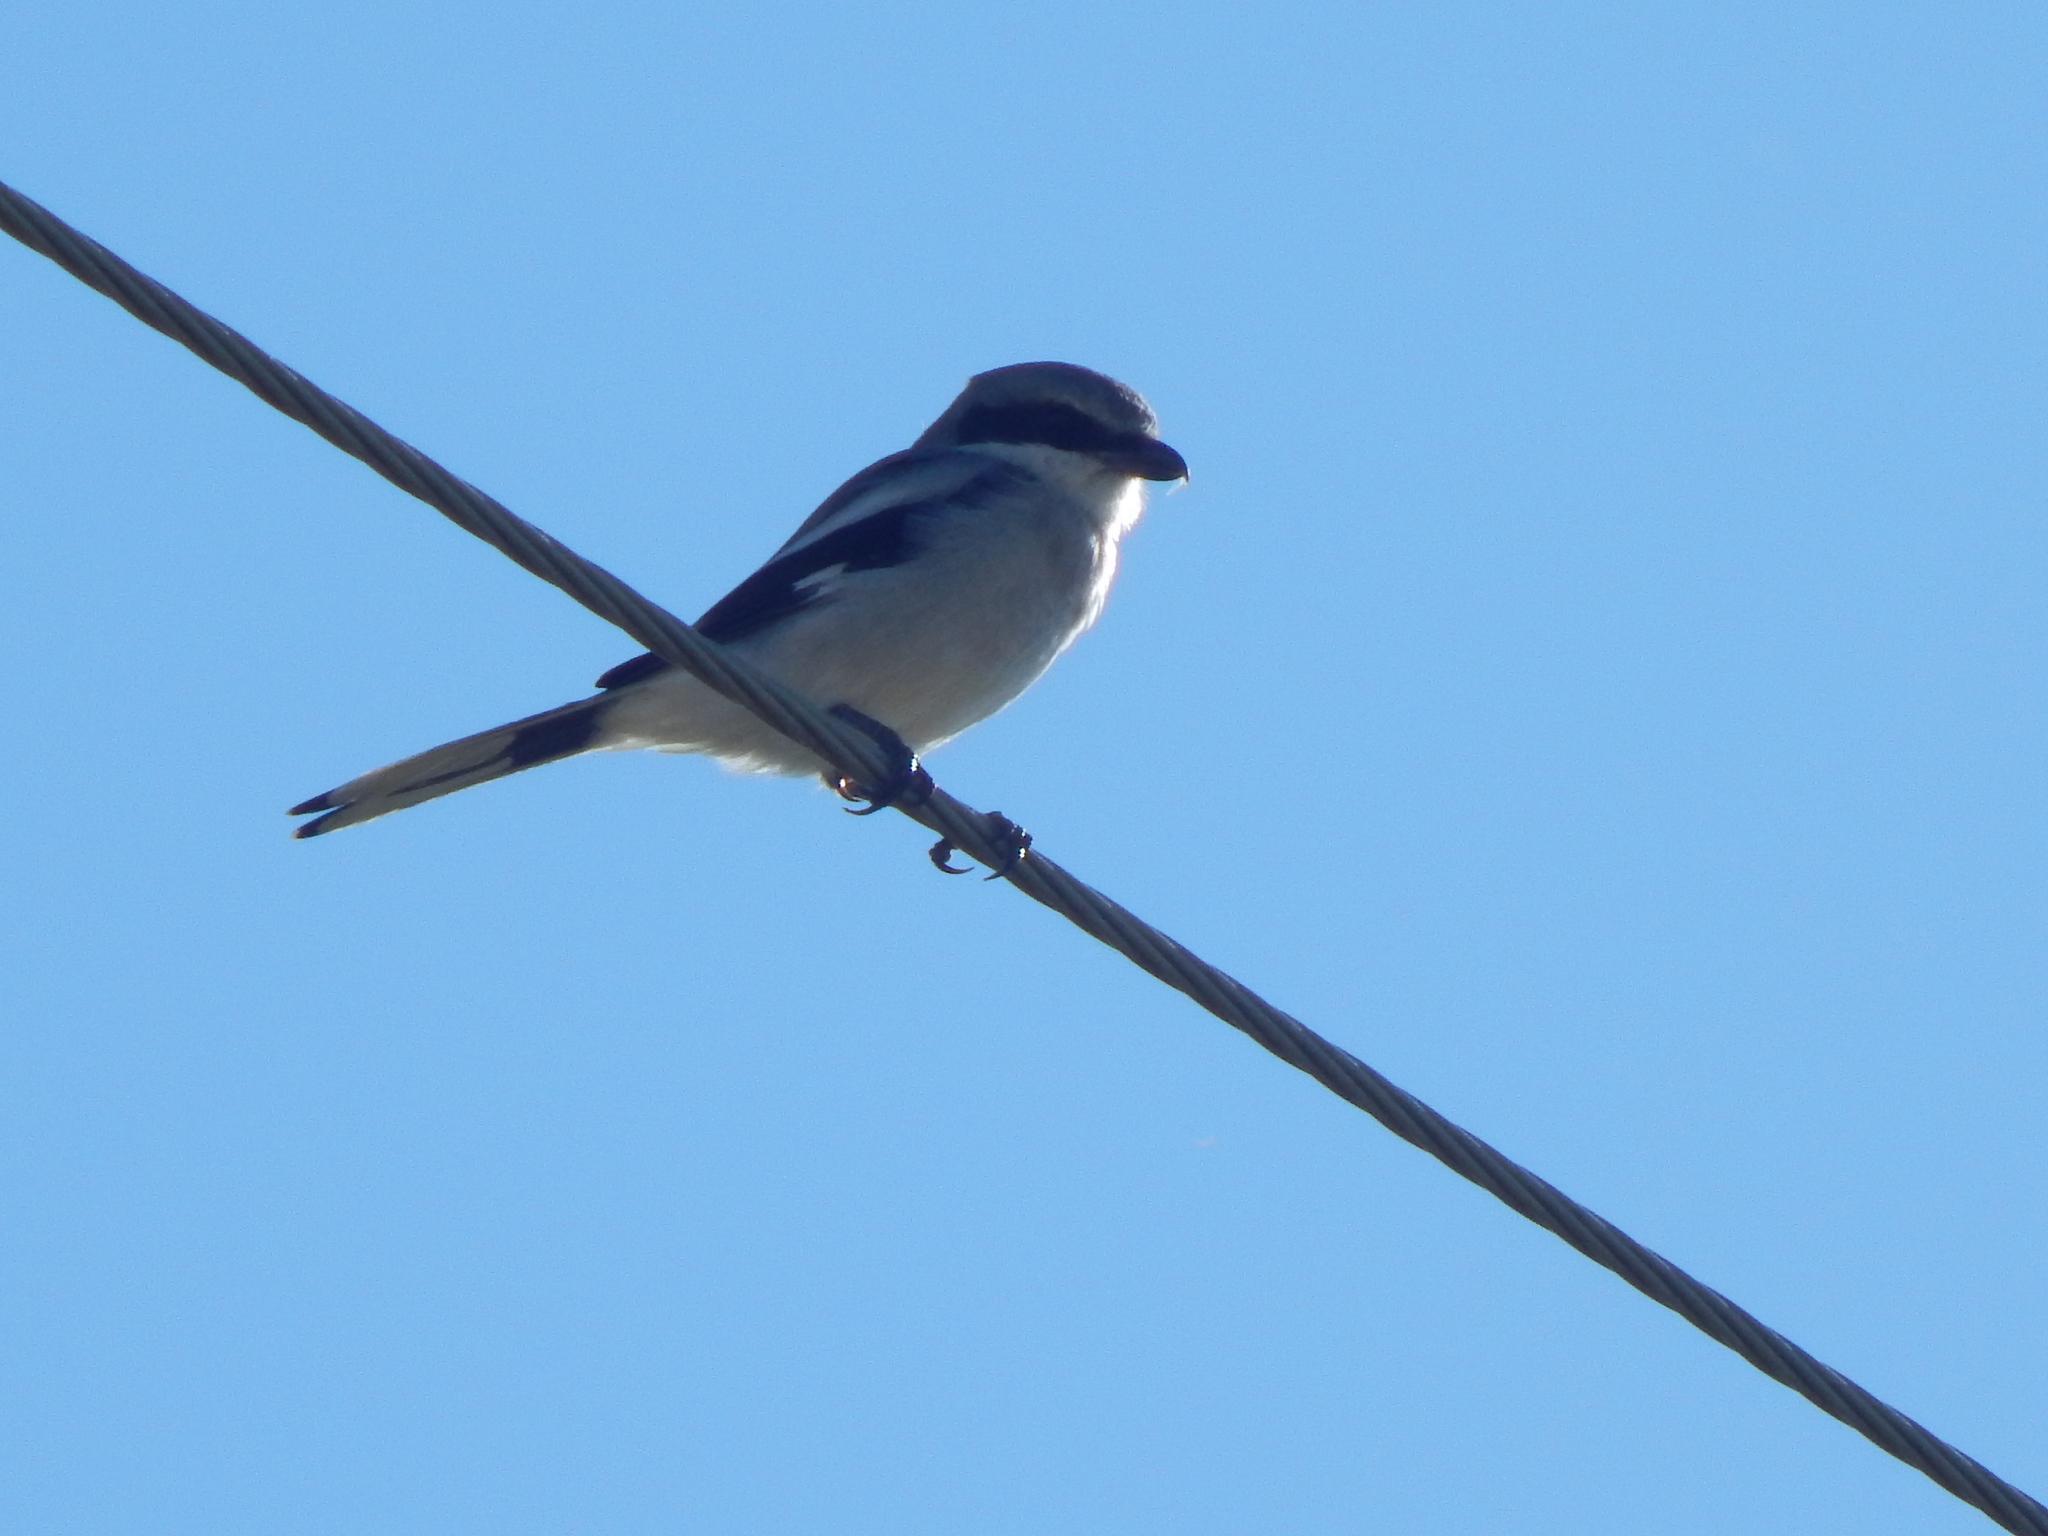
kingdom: Animalia
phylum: Chordata
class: Aves
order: Passeriformes
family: Laniidae
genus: Lanius
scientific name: Lanius ludovicianus
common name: Loggerhead shrike
